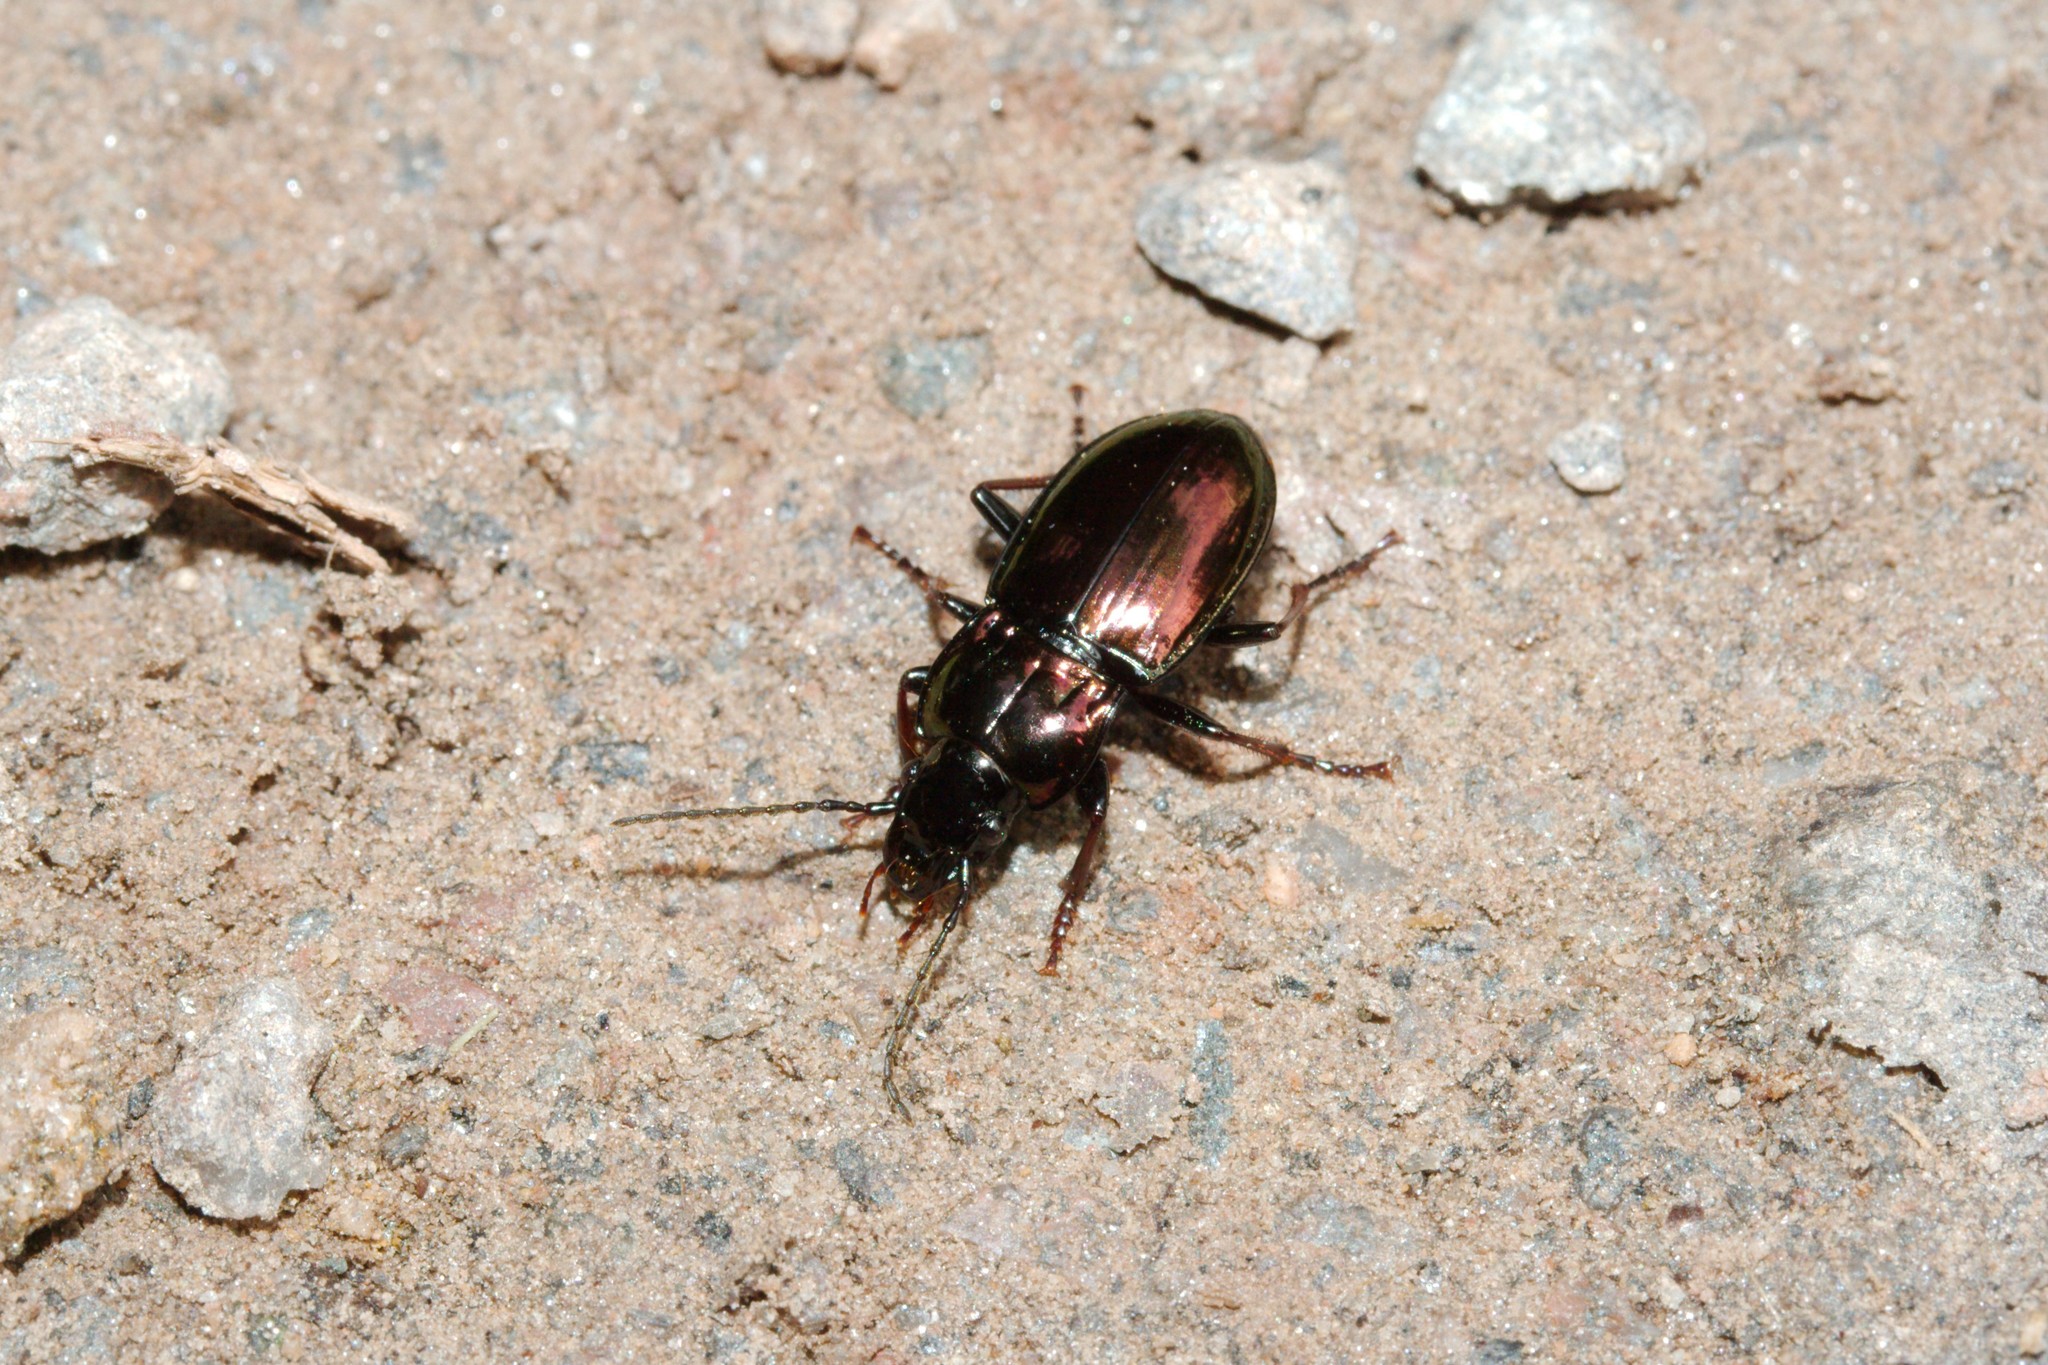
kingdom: Animalia
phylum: Arthropoda
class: Insecta
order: Coleoptera
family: Carabidae
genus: Pterostichus
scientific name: Pterostichus burmeisteri
